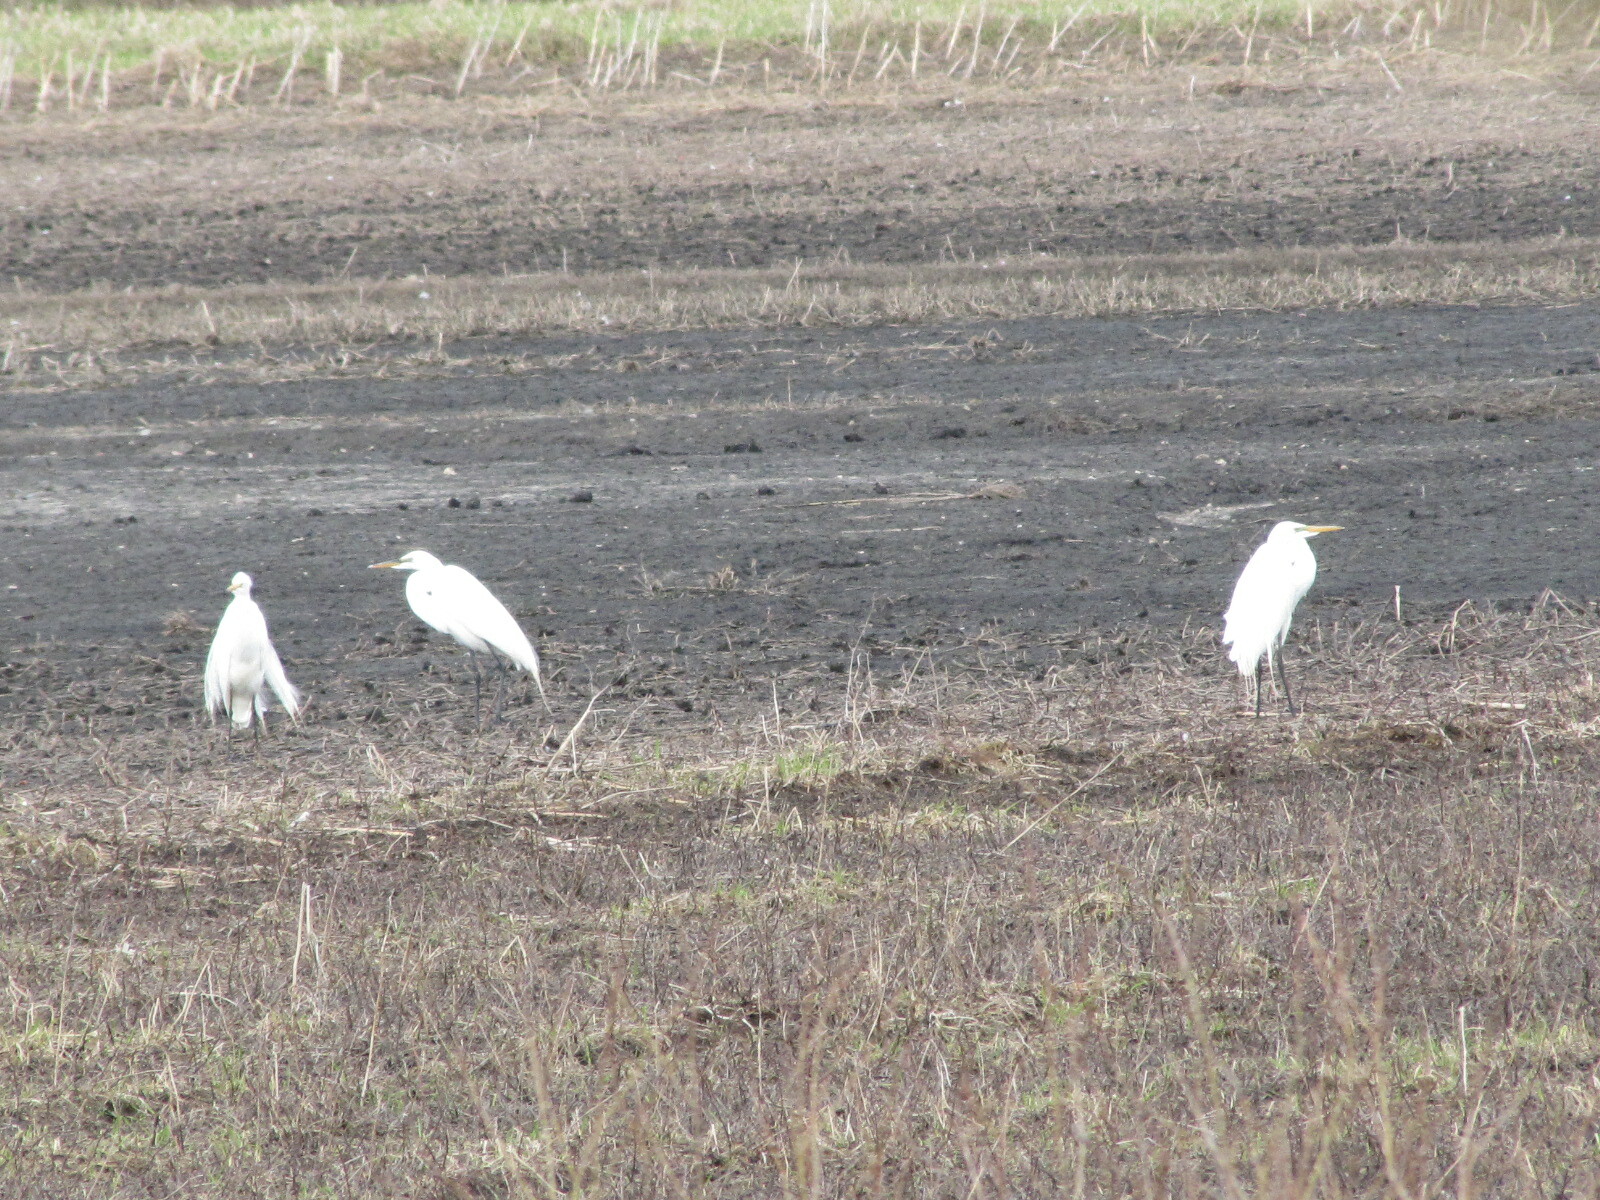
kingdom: Animalia
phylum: Chordata
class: Aves
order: Pelecaniformes
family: Ardeidae
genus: Ardea
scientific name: Ardea alba
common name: Great egret
